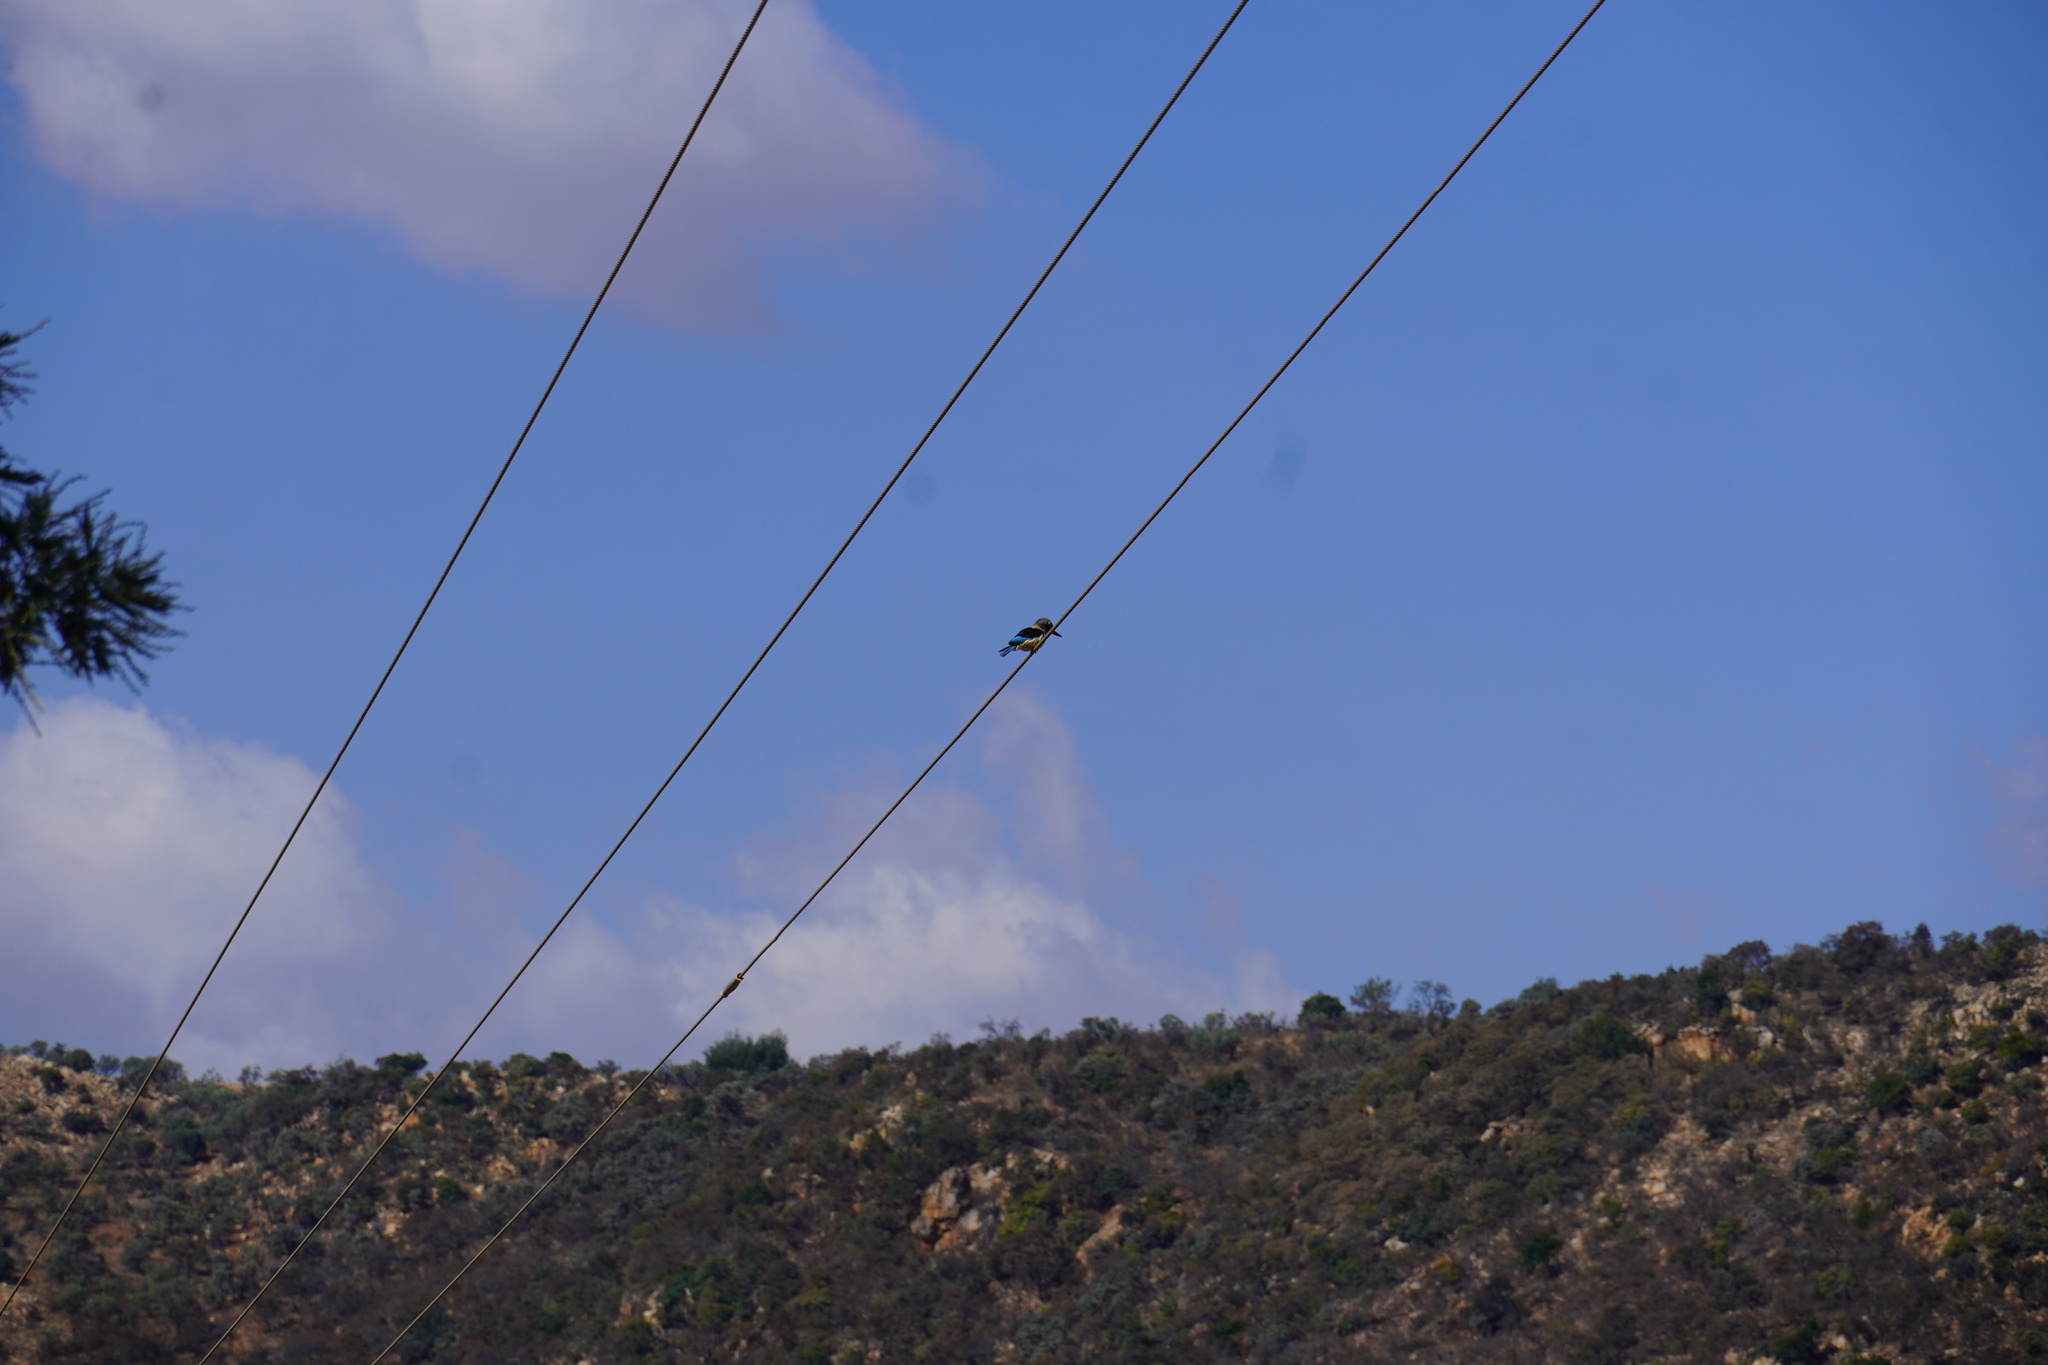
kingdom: Animalia
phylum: Chordata
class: Aves
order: Coraciiformes
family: Alcedinidae
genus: Halcyon
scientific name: Halcyon albiventris
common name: Brown-hooded kingfisher
